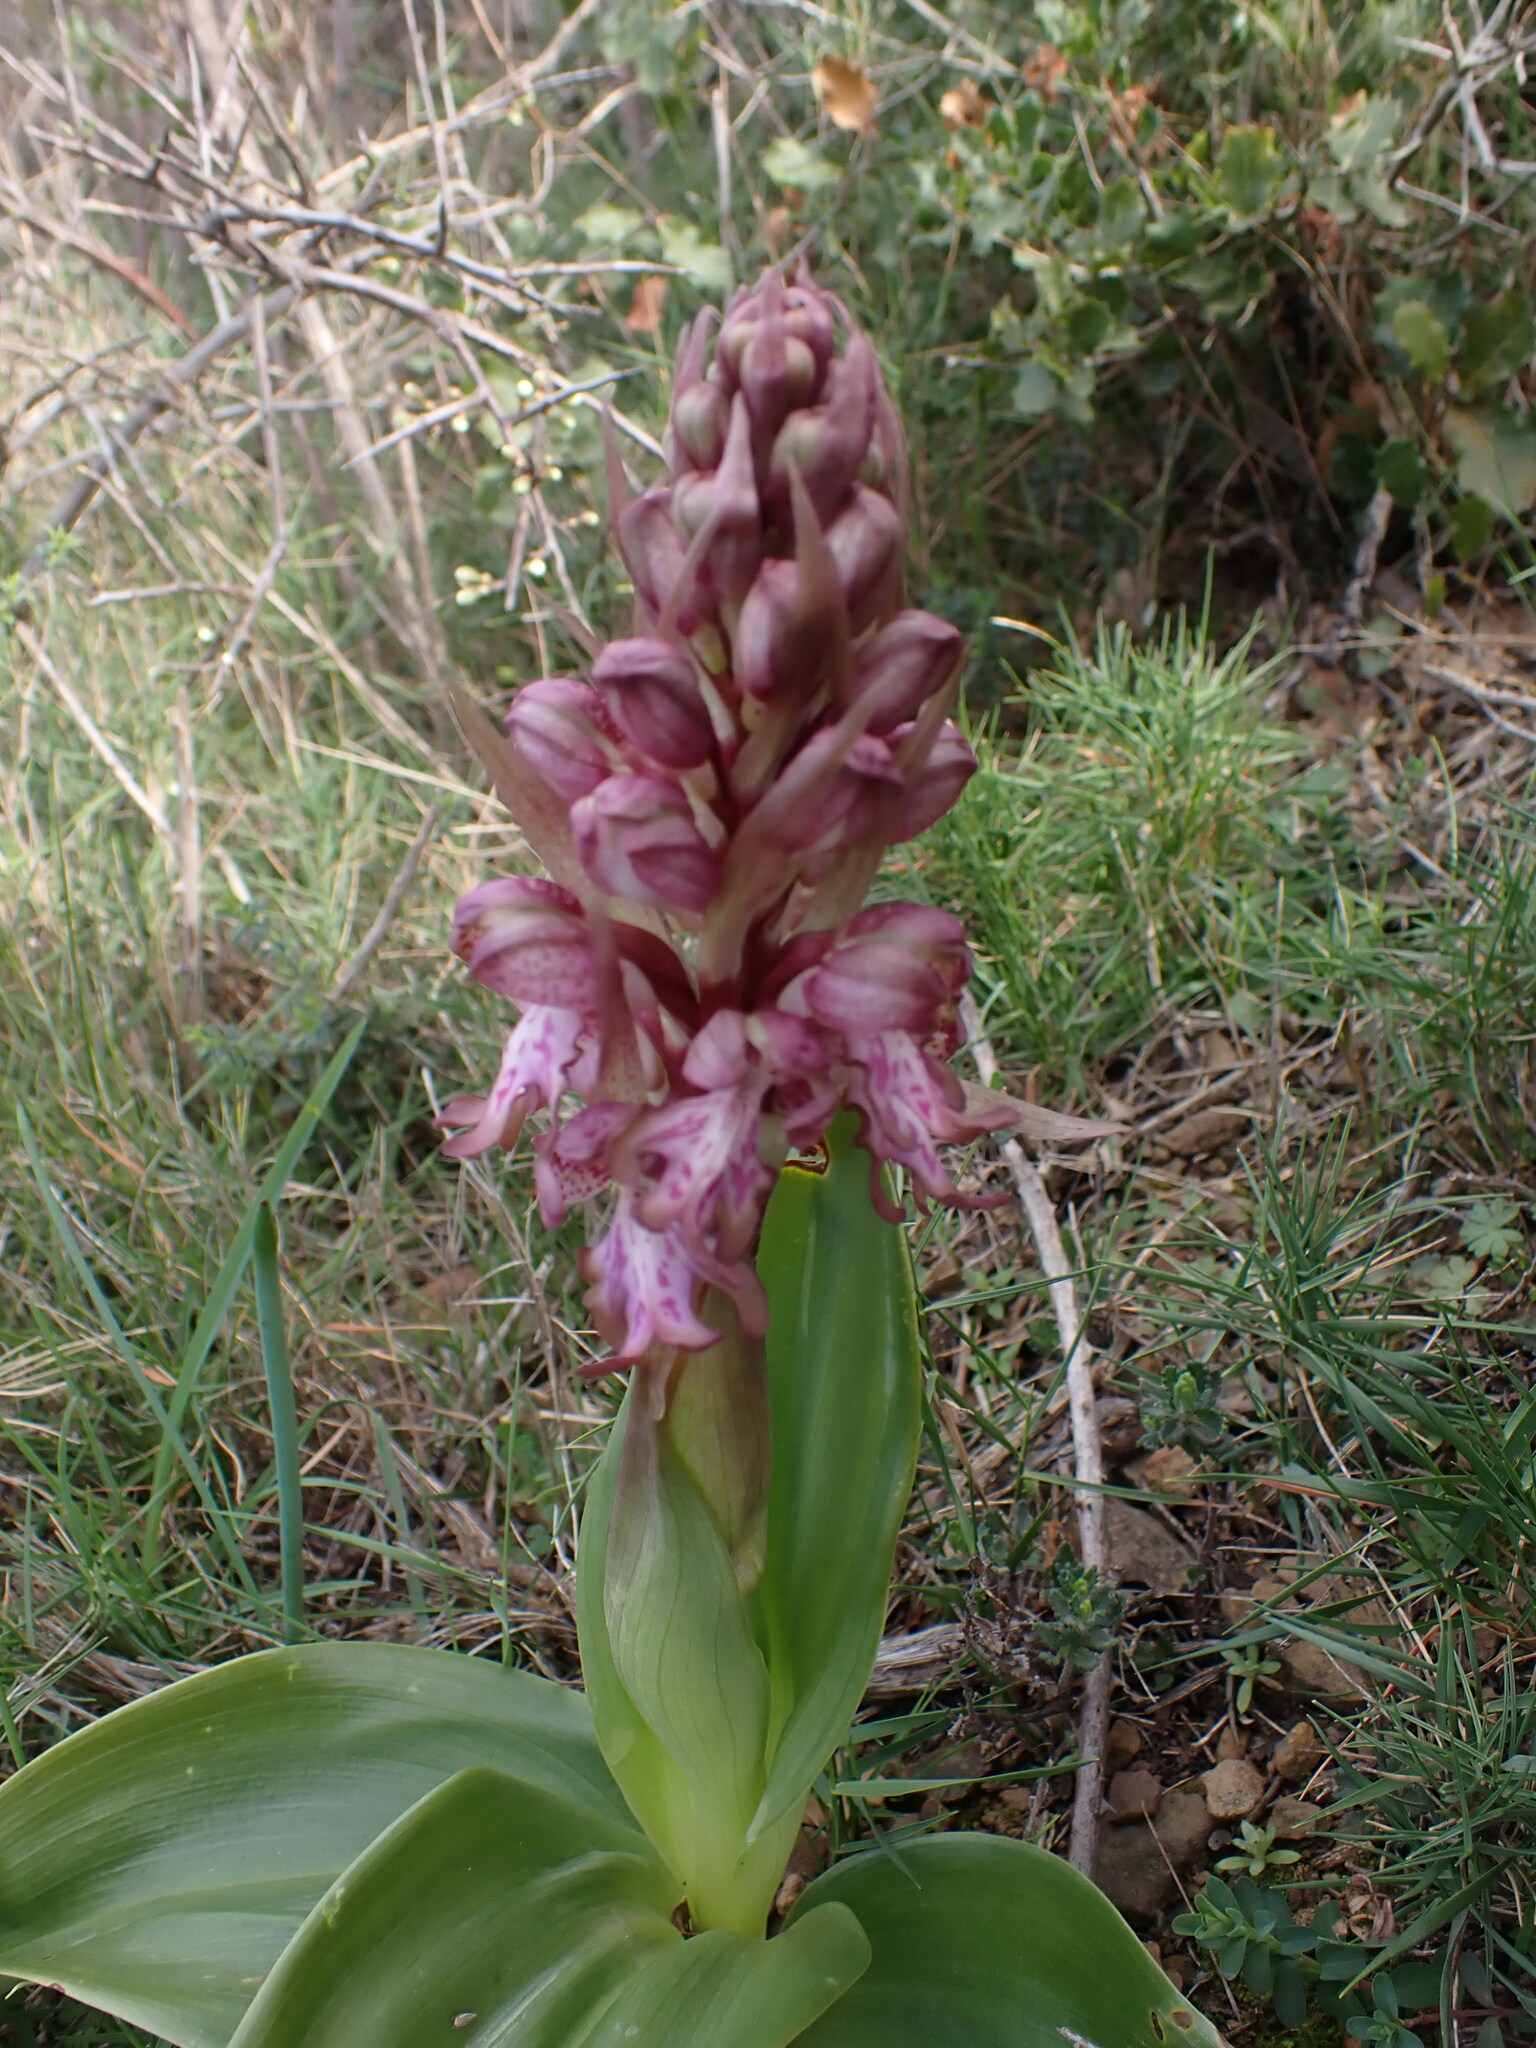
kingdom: Plantae
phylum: Tracheophyta
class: Liliopsida
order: Asparagales
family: Orchidaceae
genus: Himantoglossum
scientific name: Himantoglossum robertianum
